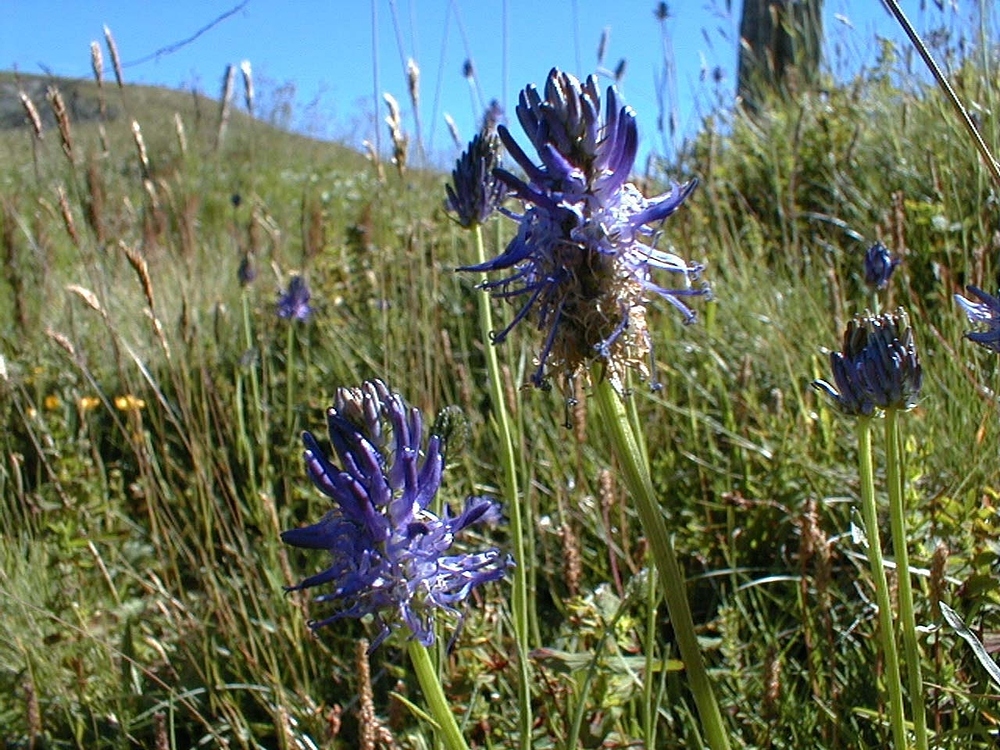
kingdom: Plantae
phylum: Tracheophyta
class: Magnoliopsida
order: Asterales
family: Campanulaceae
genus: Phyteuma
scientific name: Phyteuma betonicifolium
